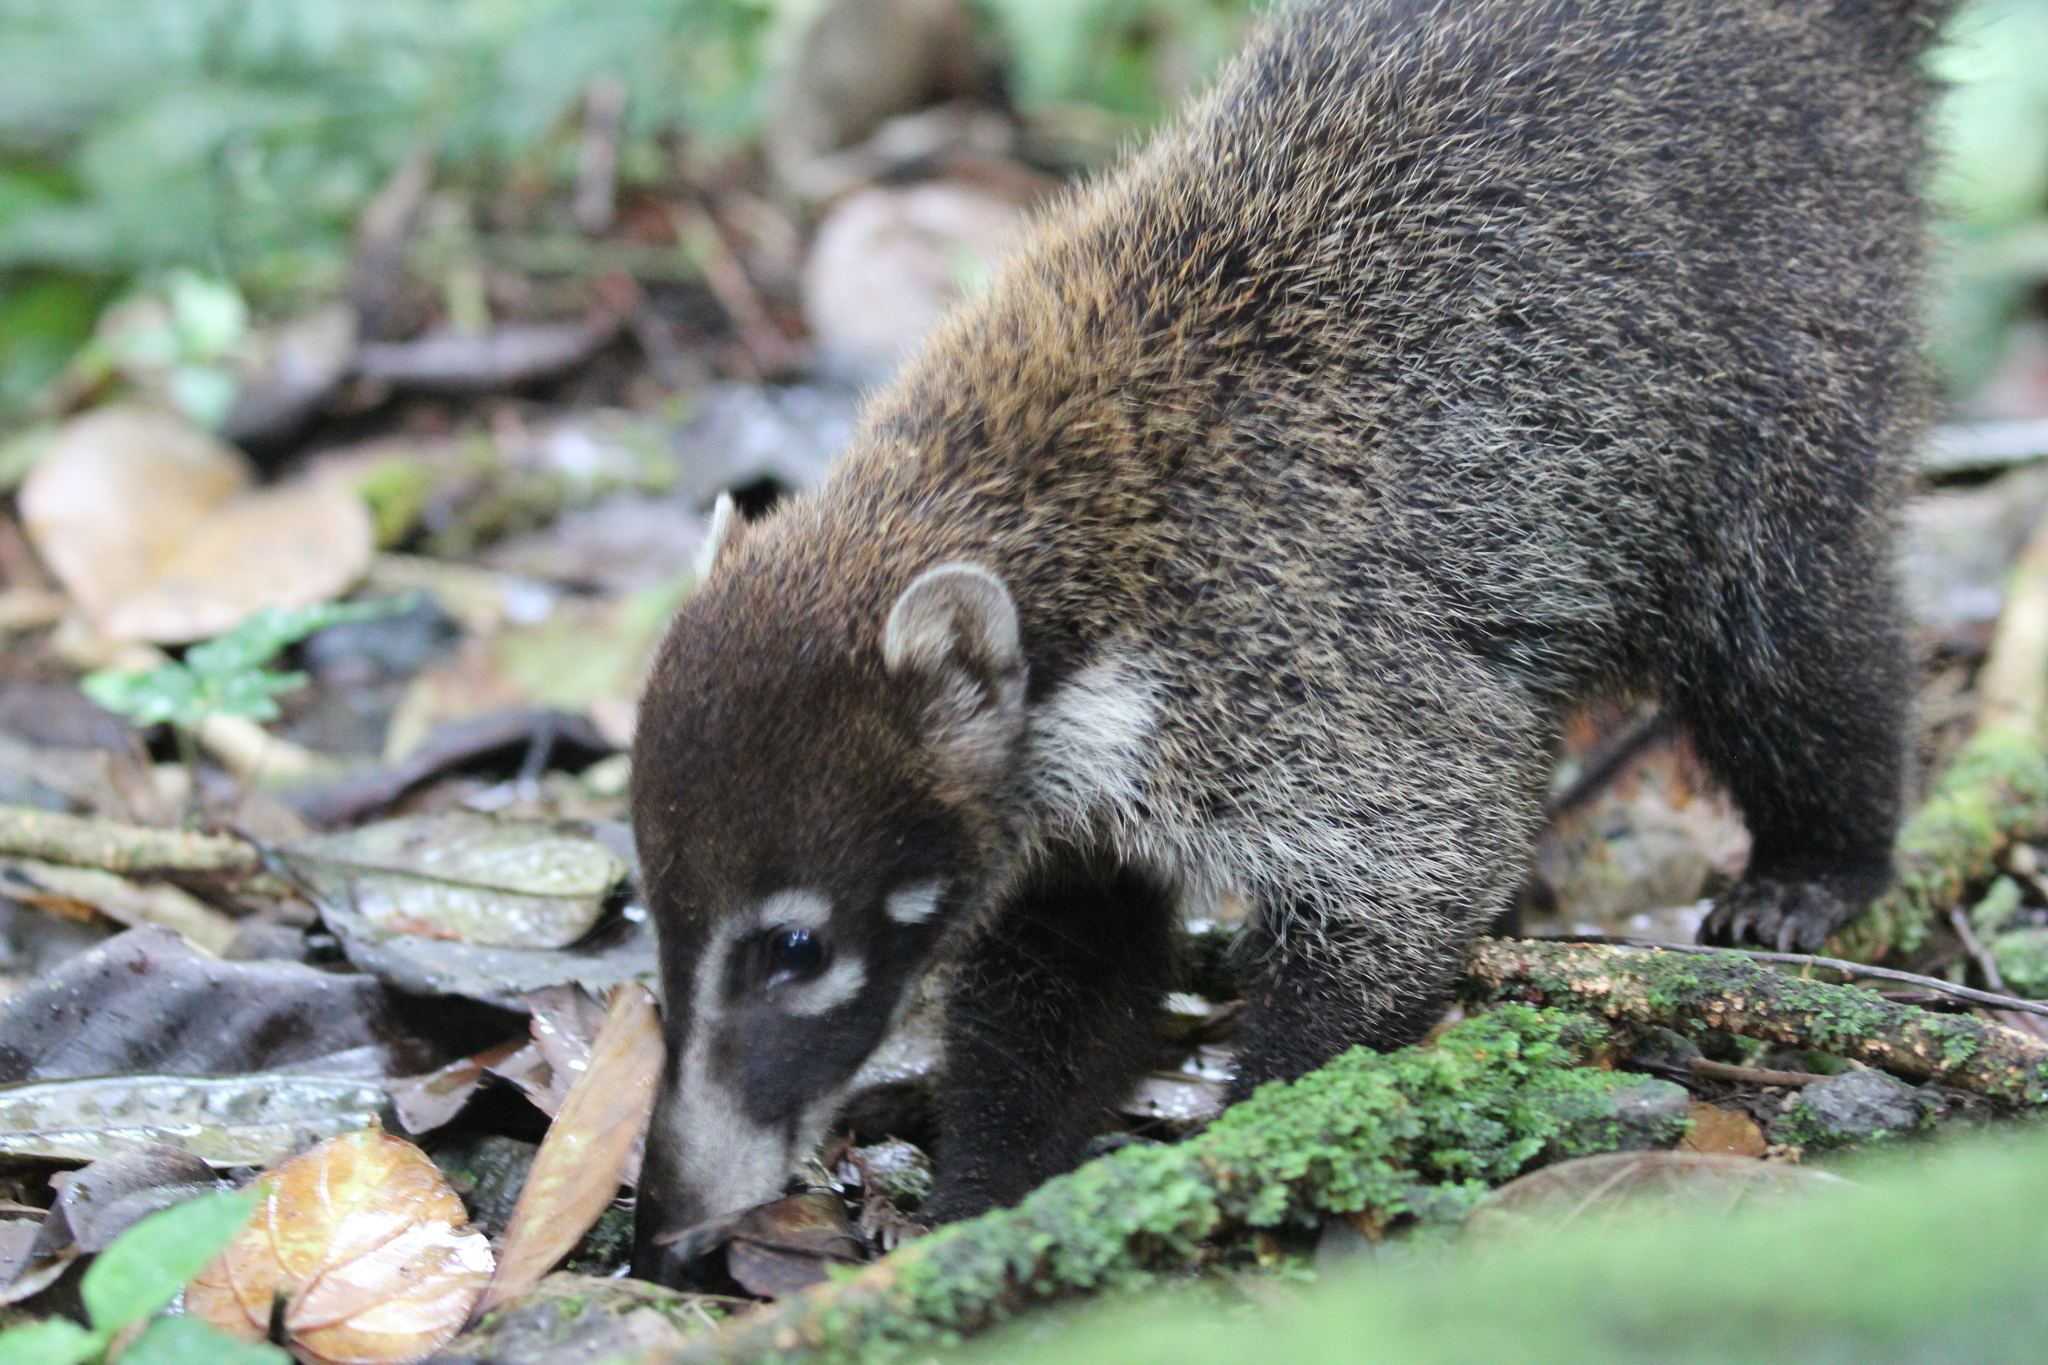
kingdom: Animalia
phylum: Chordata
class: Mammalia
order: Carnivora
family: Procyonidae
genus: Nasua
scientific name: Nasua narica
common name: White-nosed coati
